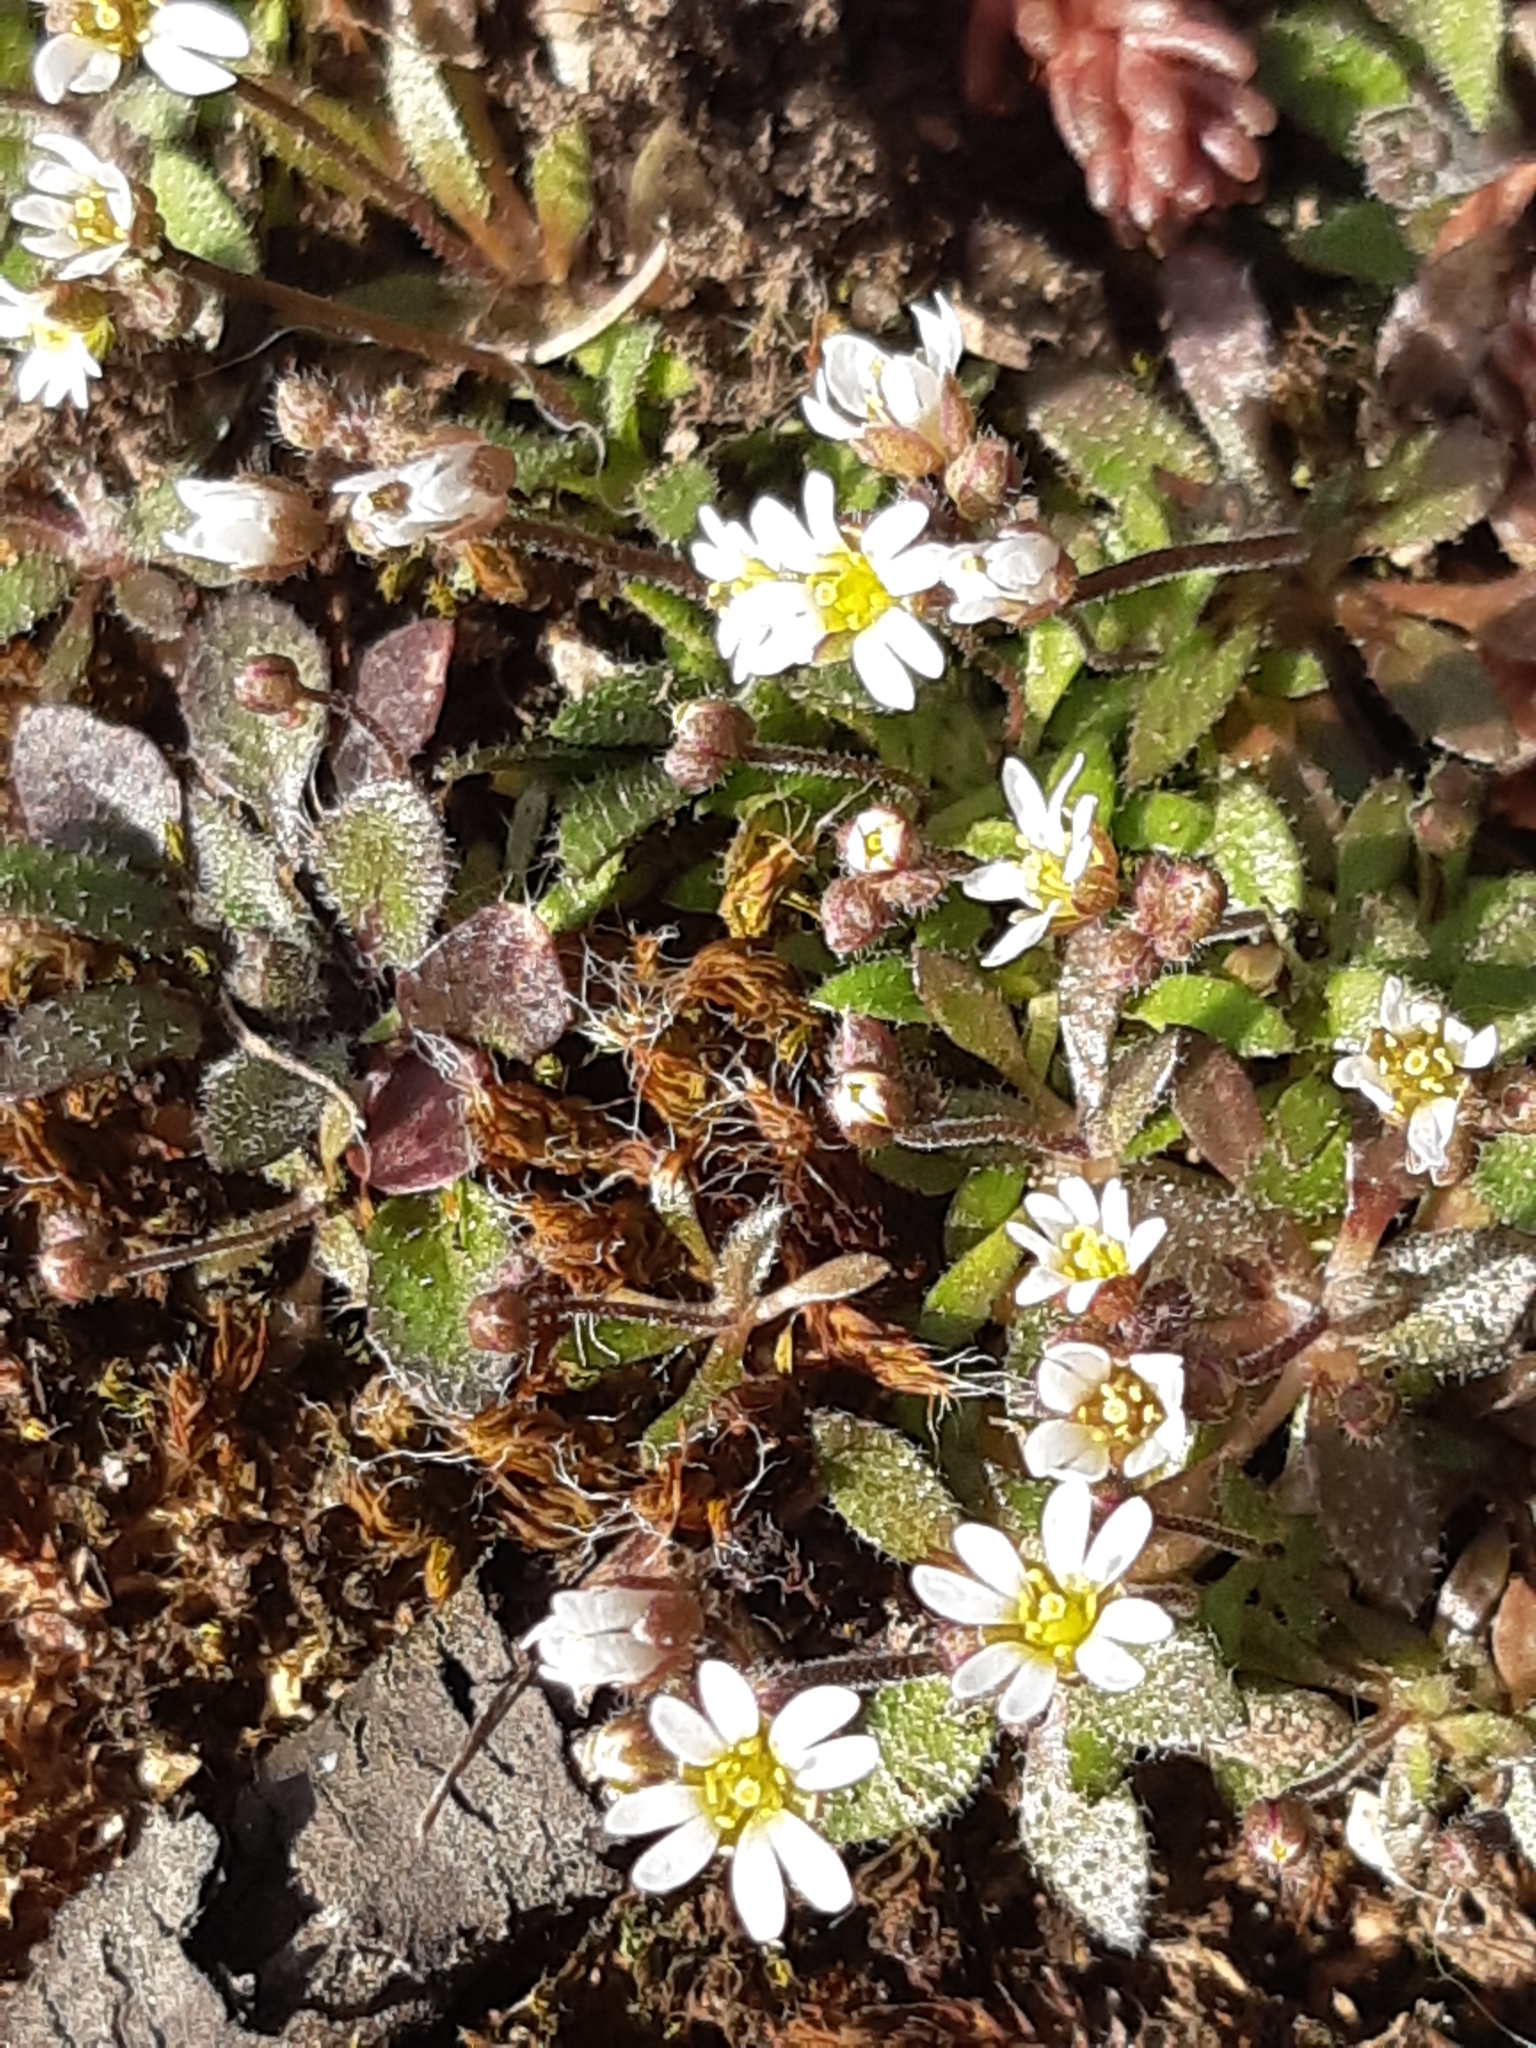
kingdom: Plantae
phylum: Tracheophyta
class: Magnoliopsida
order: Brassicales
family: Brassicaceae
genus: Draba
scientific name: Draba verna
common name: Spring draba
